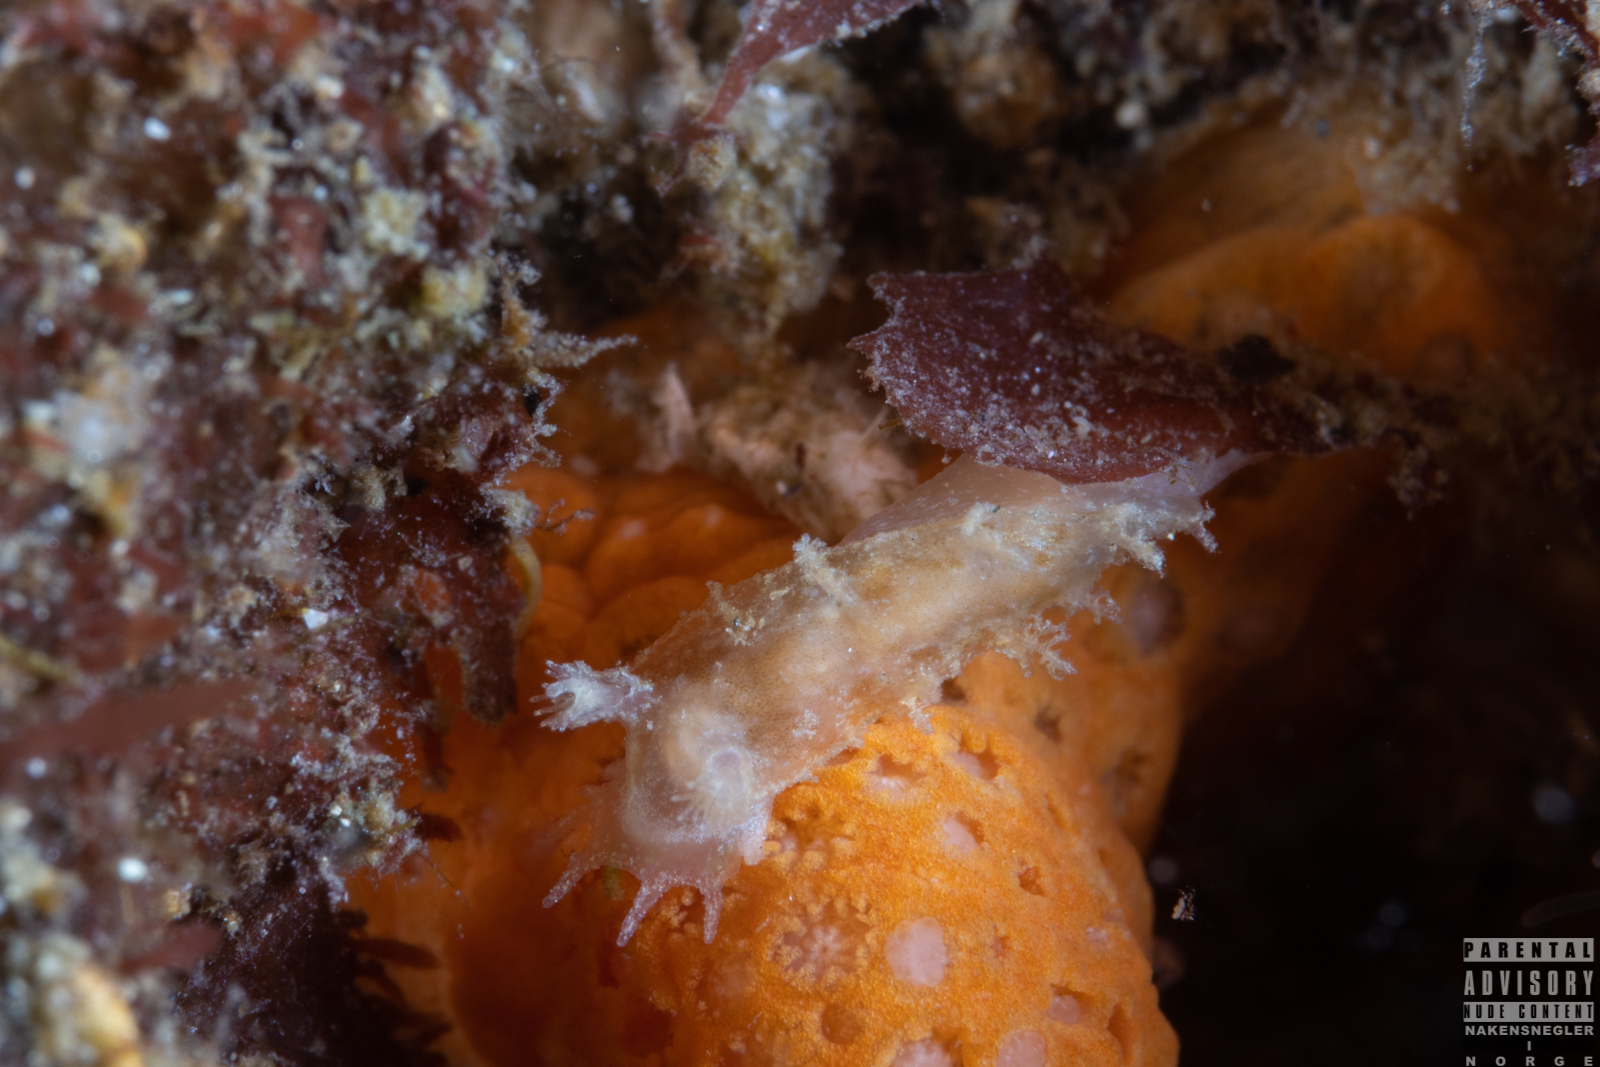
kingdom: Animalia
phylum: Mollusca
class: Gastropoda
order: Nudibranchia
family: Tritoniidae
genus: Duvaucelia
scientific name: Duvaucelia plebeia
